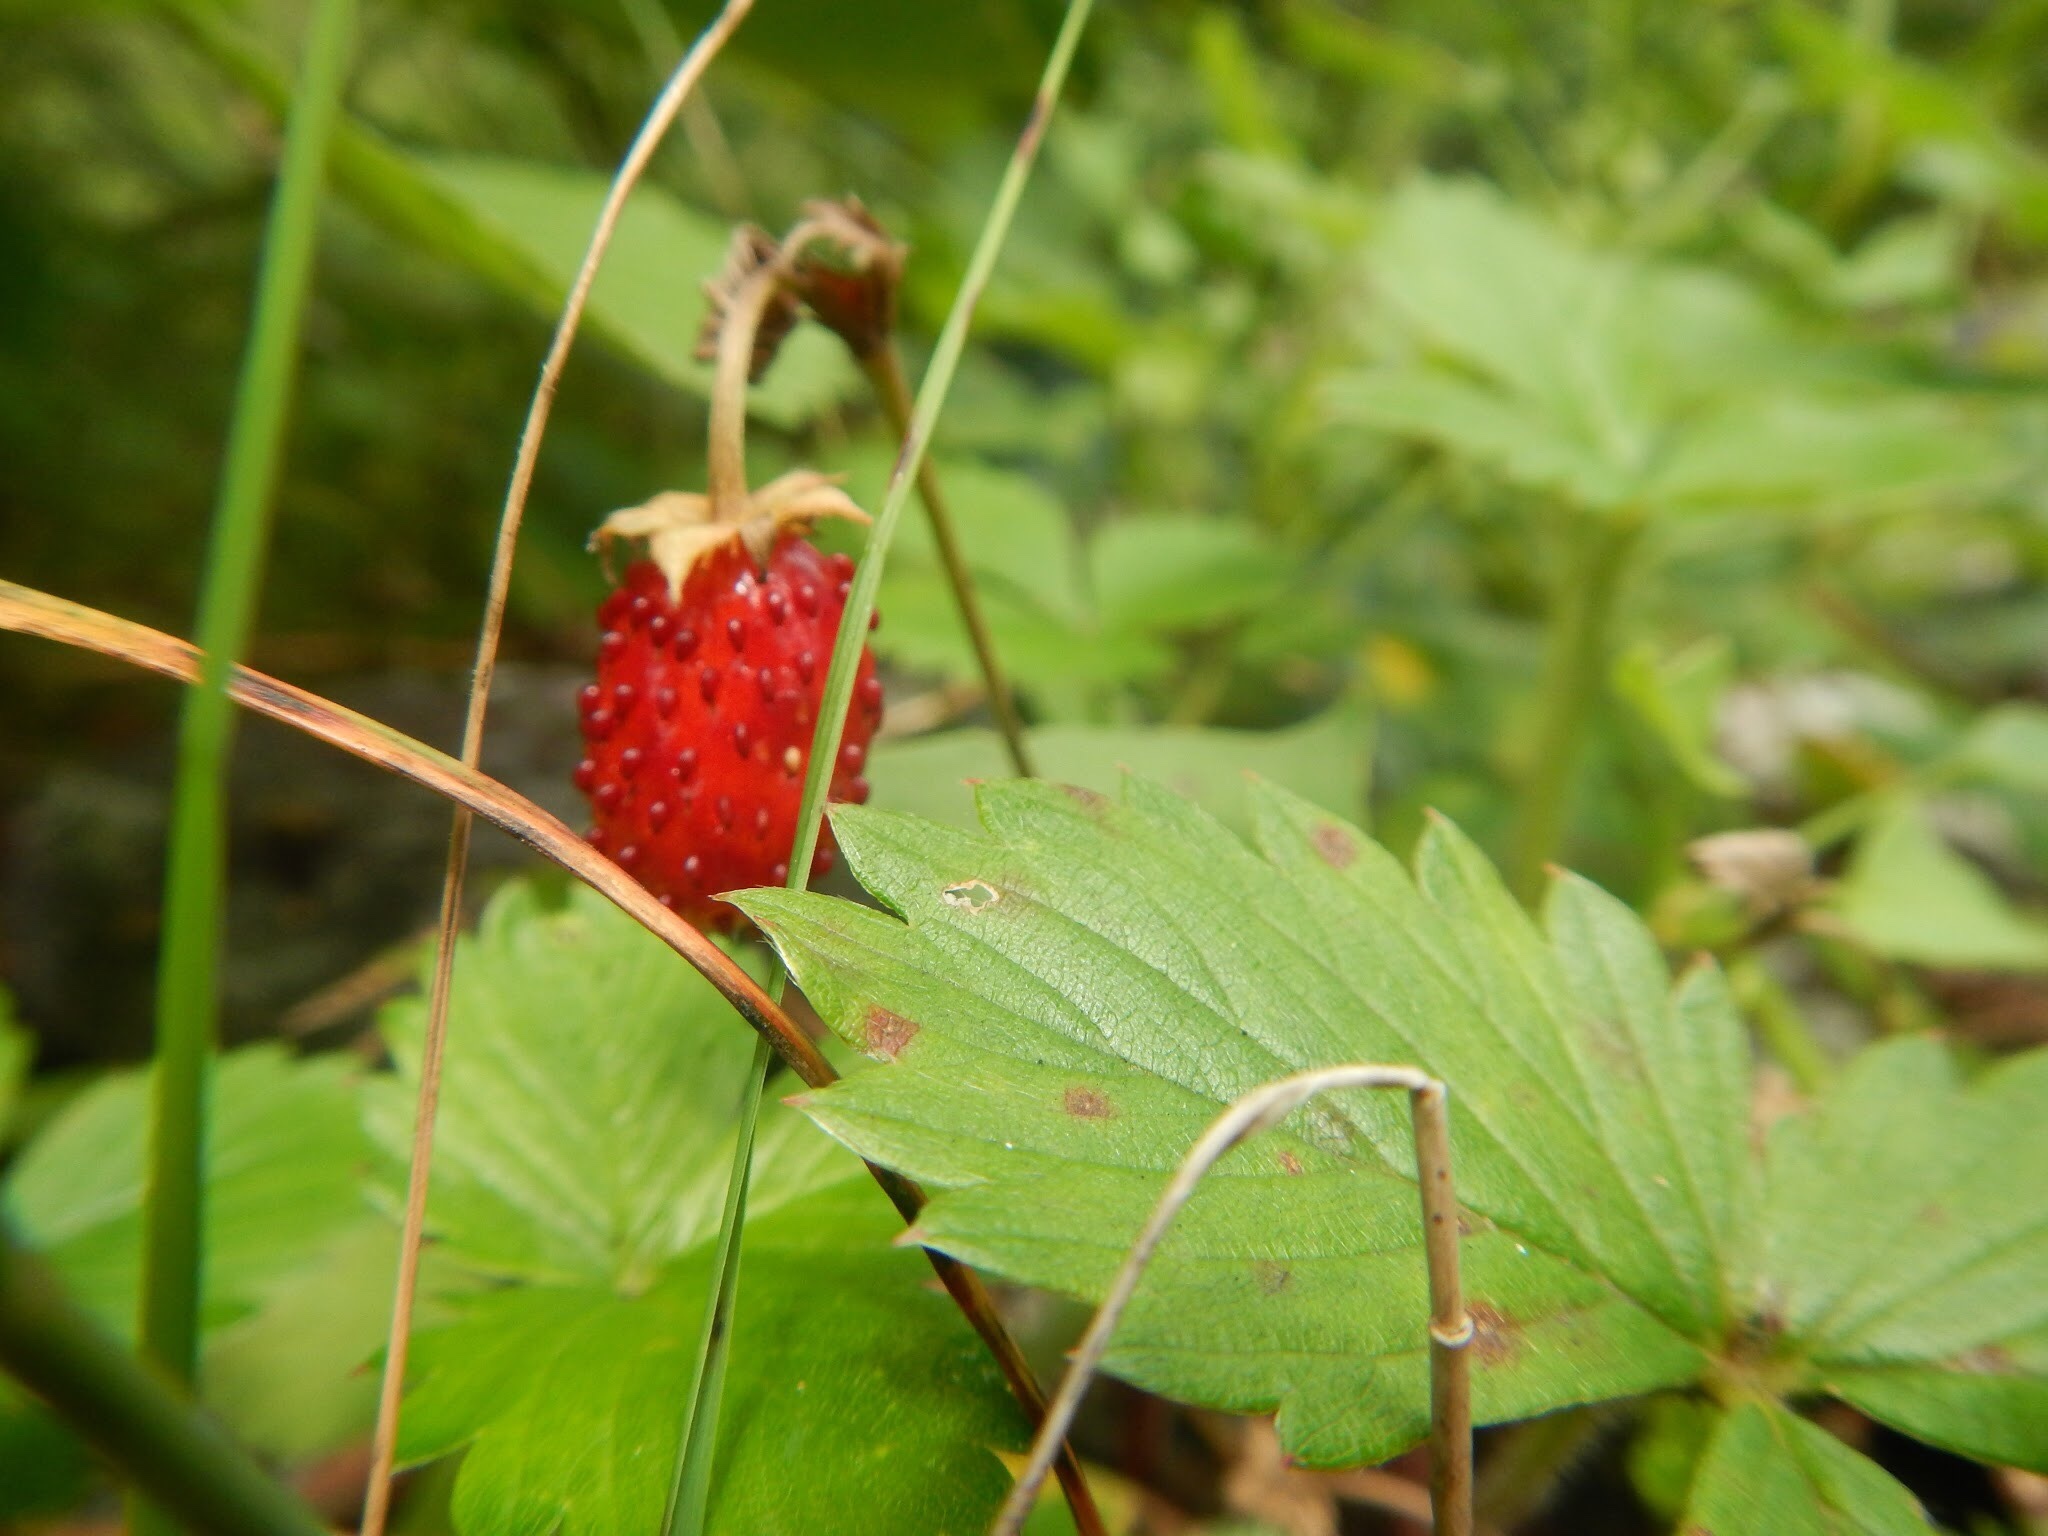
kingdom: Plantae
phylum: Tracheophyta
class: Magnoliopsida
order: Rosales
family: Rosaceae
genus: Fragaria
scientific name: Fragaria vesca
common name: Wild strawberry
